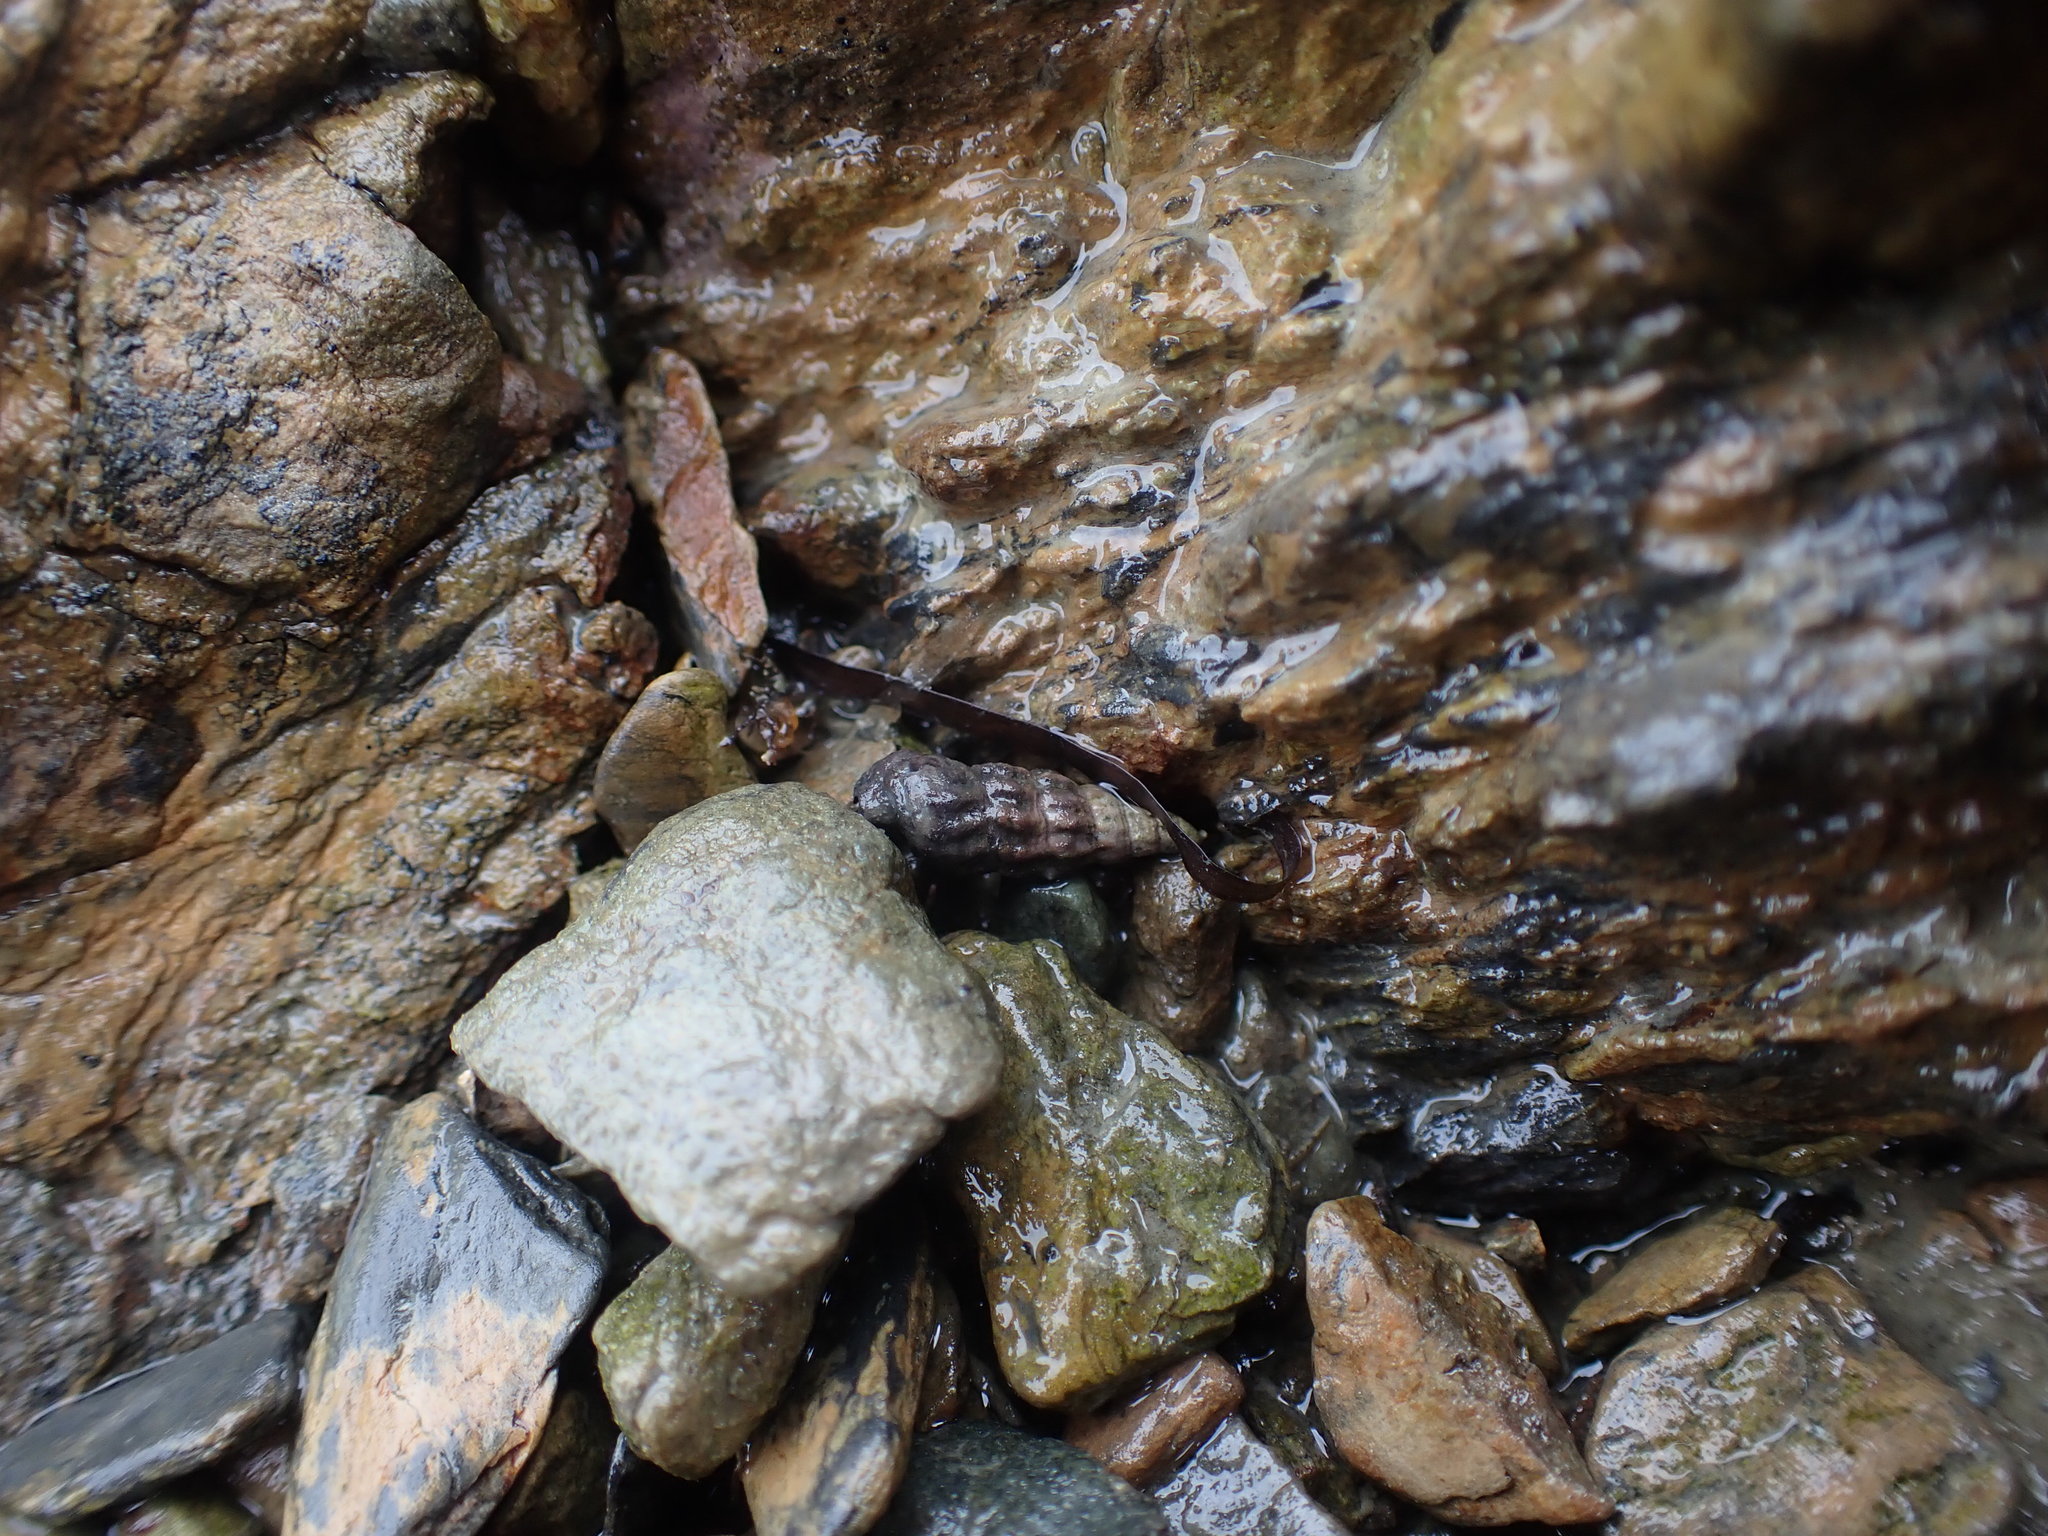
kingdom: Animalia
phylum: Mollusca
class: Gastropoda
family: Batillariidae
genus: Zeacumantus
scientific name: Zeacumantus subcarinatus
